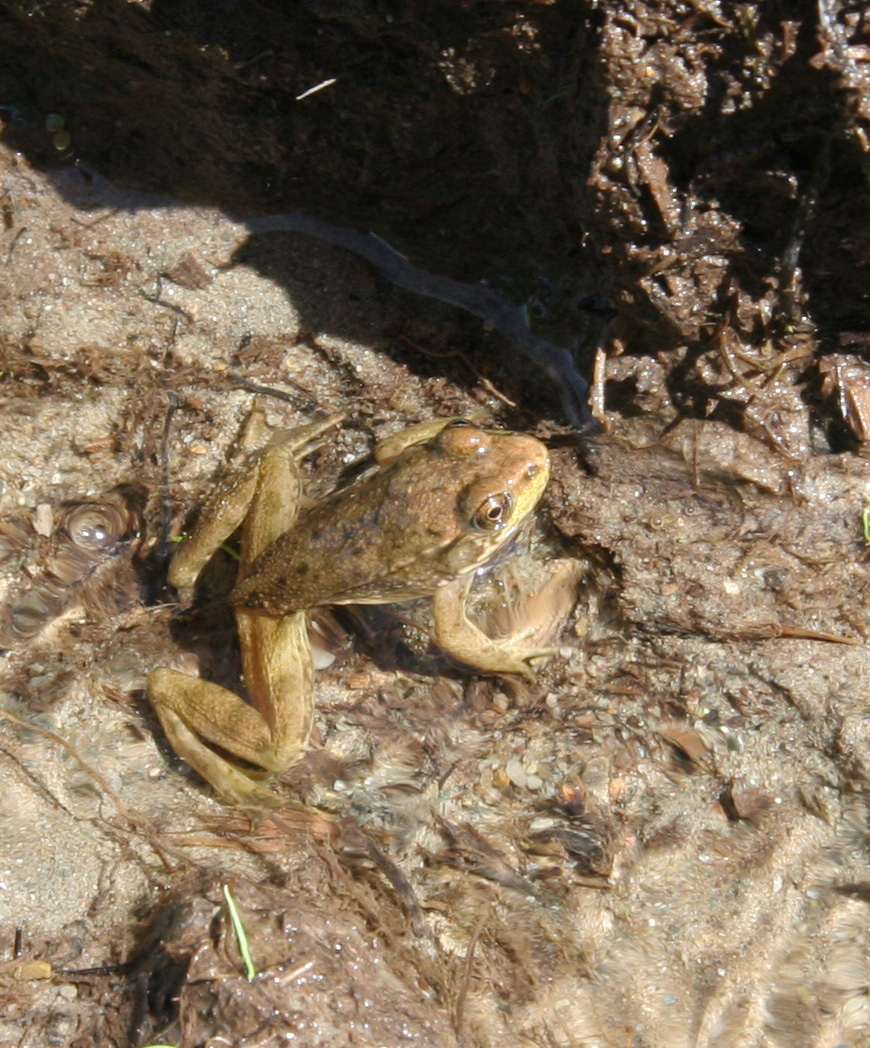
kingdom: Animalia
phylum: Chordata
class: Amphibia
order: Anura
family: Ranidae
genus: Lithobates
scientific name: Lithobates clamitans
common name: Green frog
